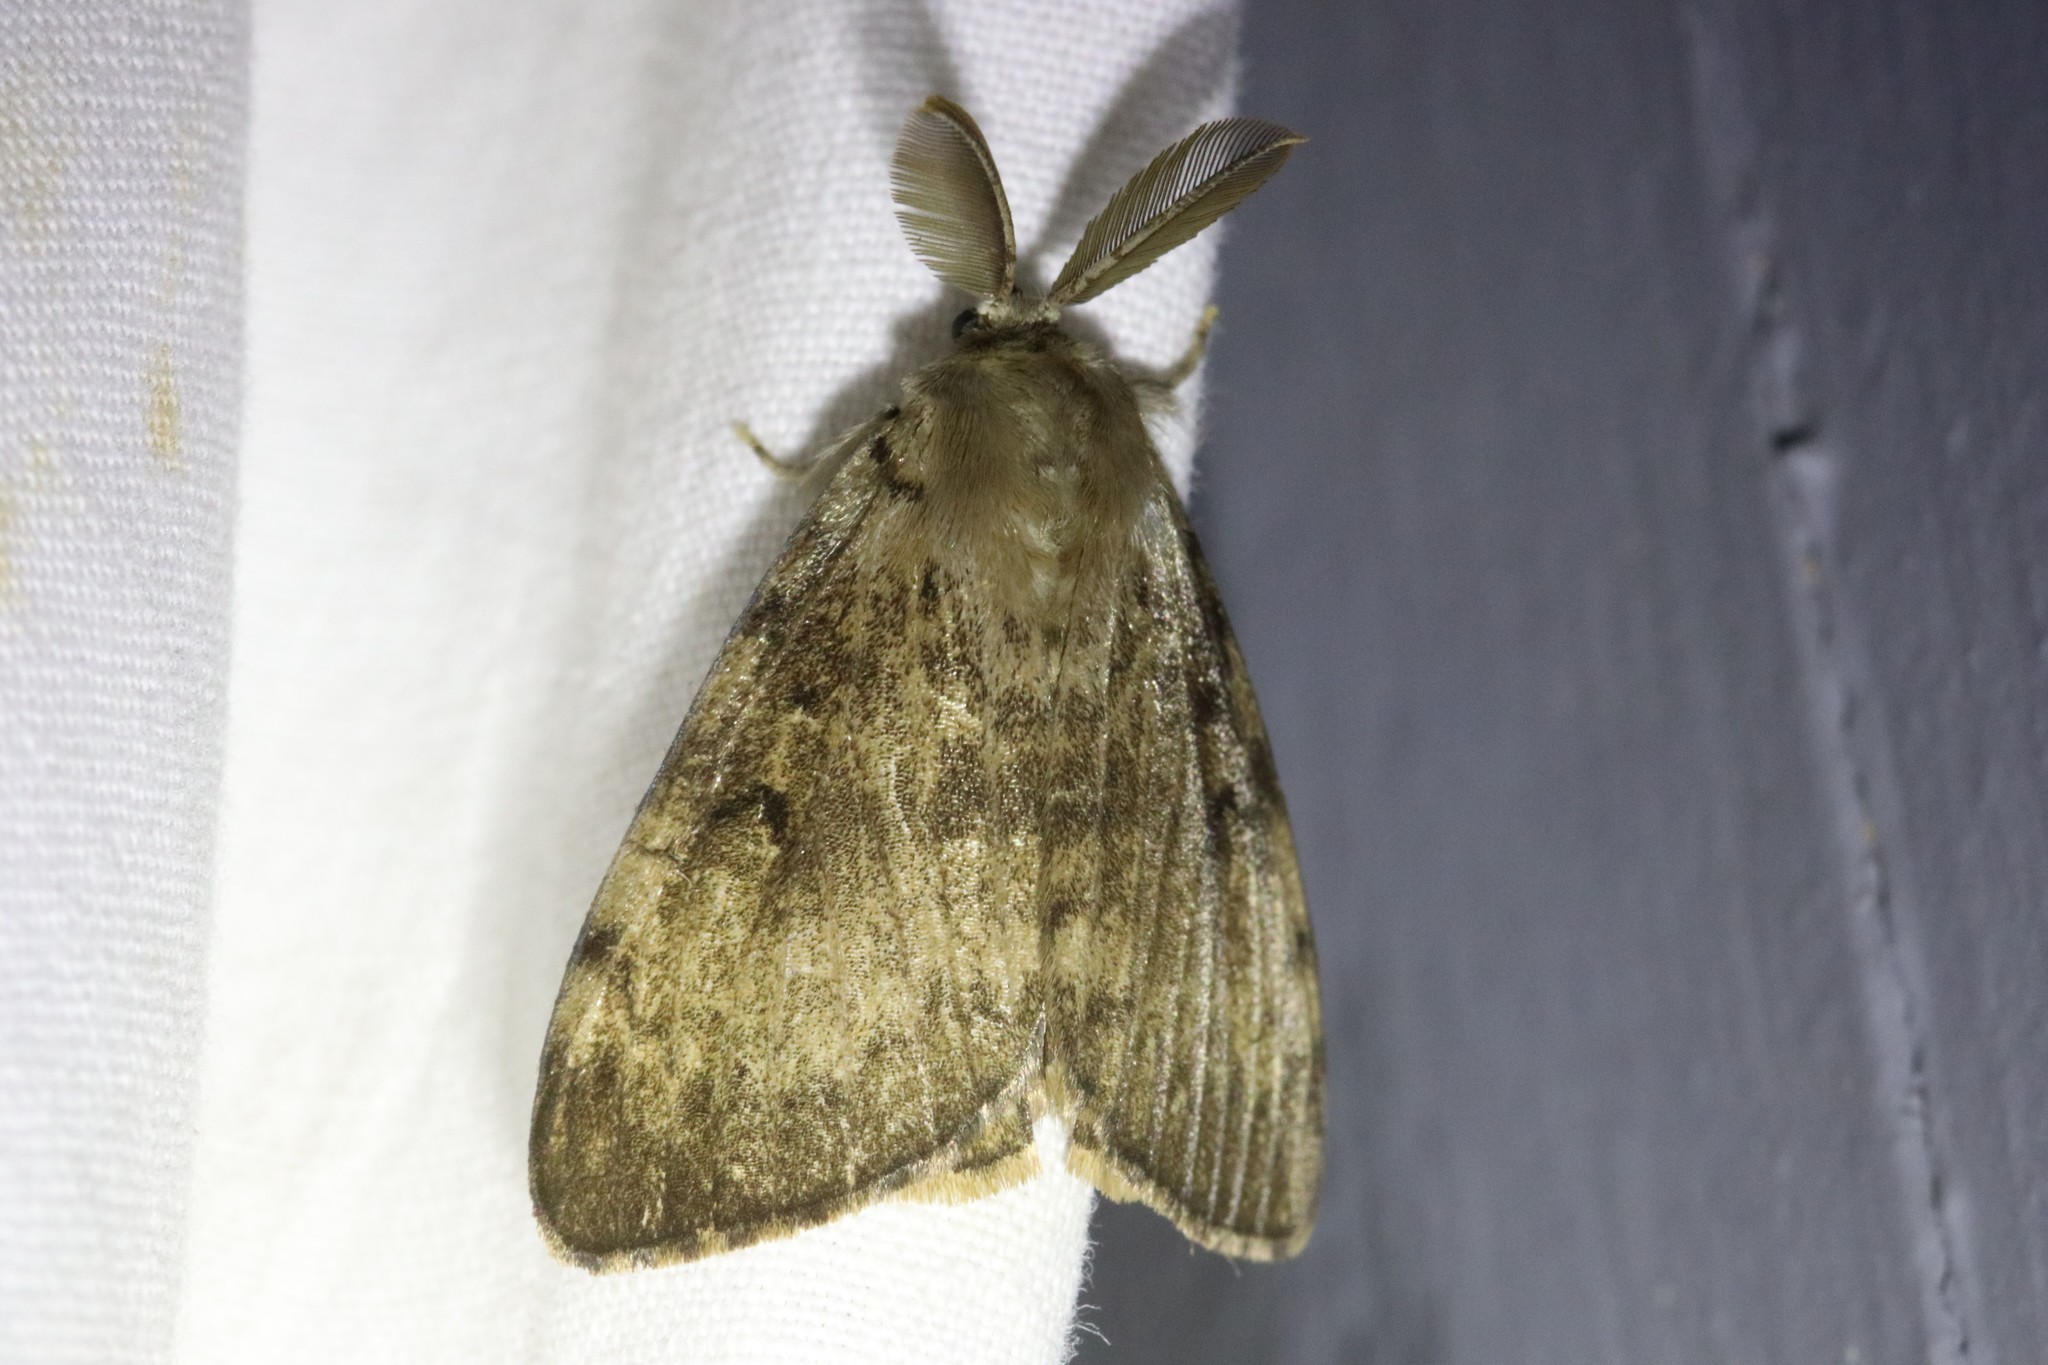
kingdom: Animalia
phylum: Arthropoda
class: Insecta
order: Lepidoptera
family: Erebidae
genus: Lymantria
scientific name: Lymantria dispar
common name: Gypsy moth
